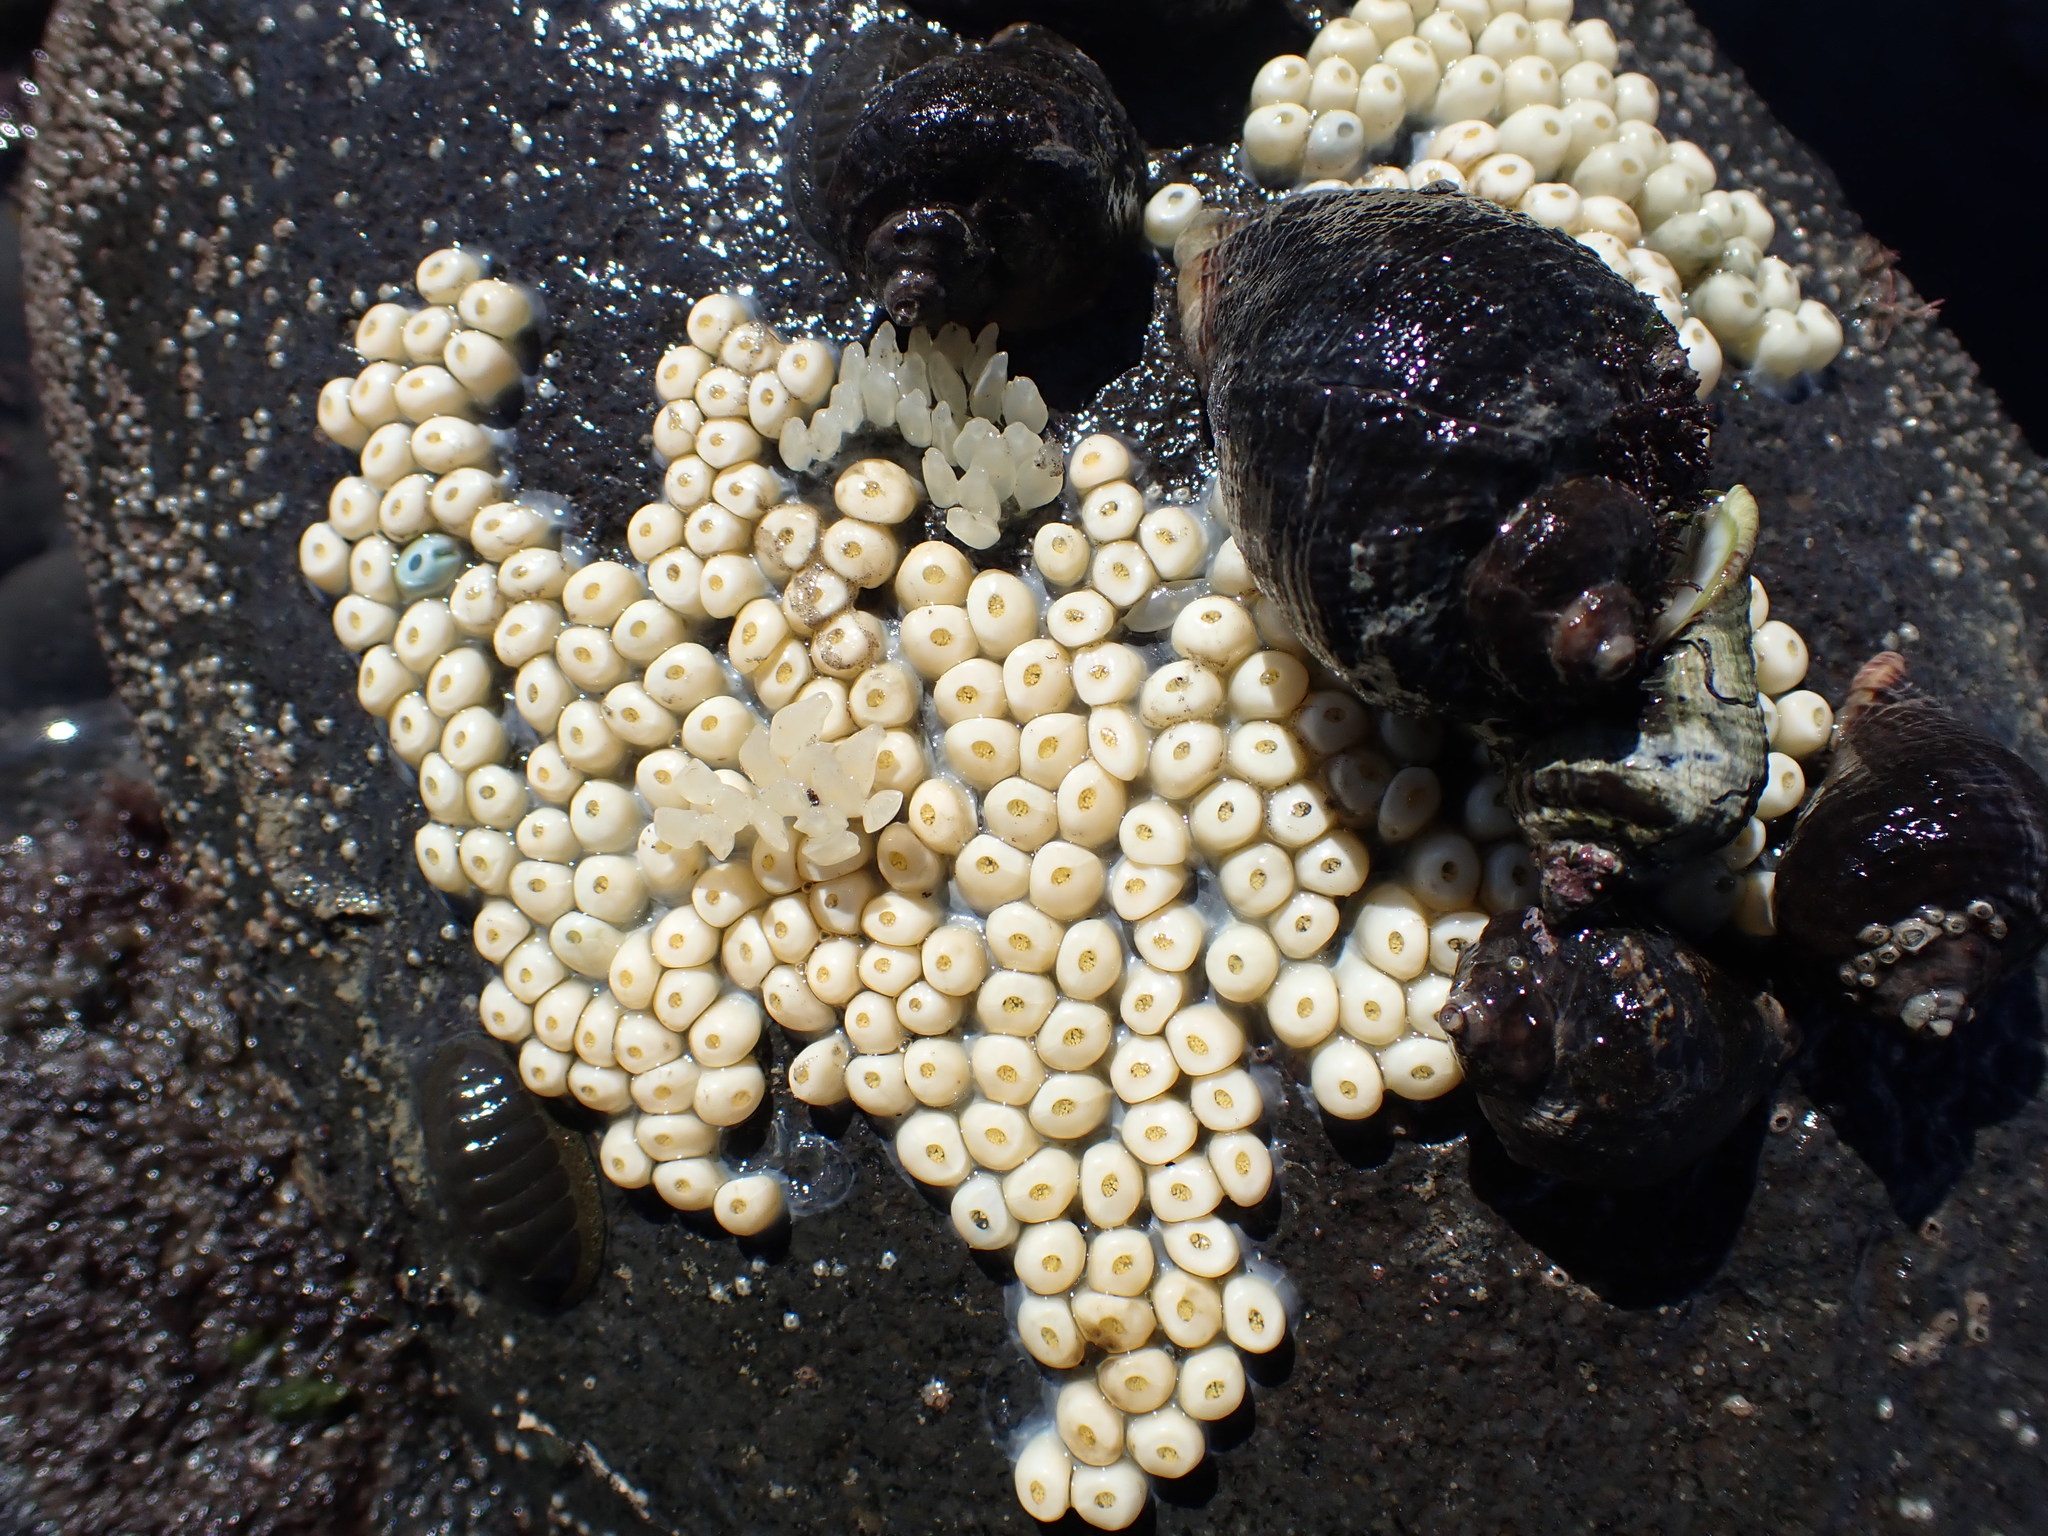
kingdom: Animalia
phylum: Mollusca
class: Gastropoda
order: Neogastropoda
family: Muricidae
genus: Haustrum
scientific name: Haustrum haustorium
